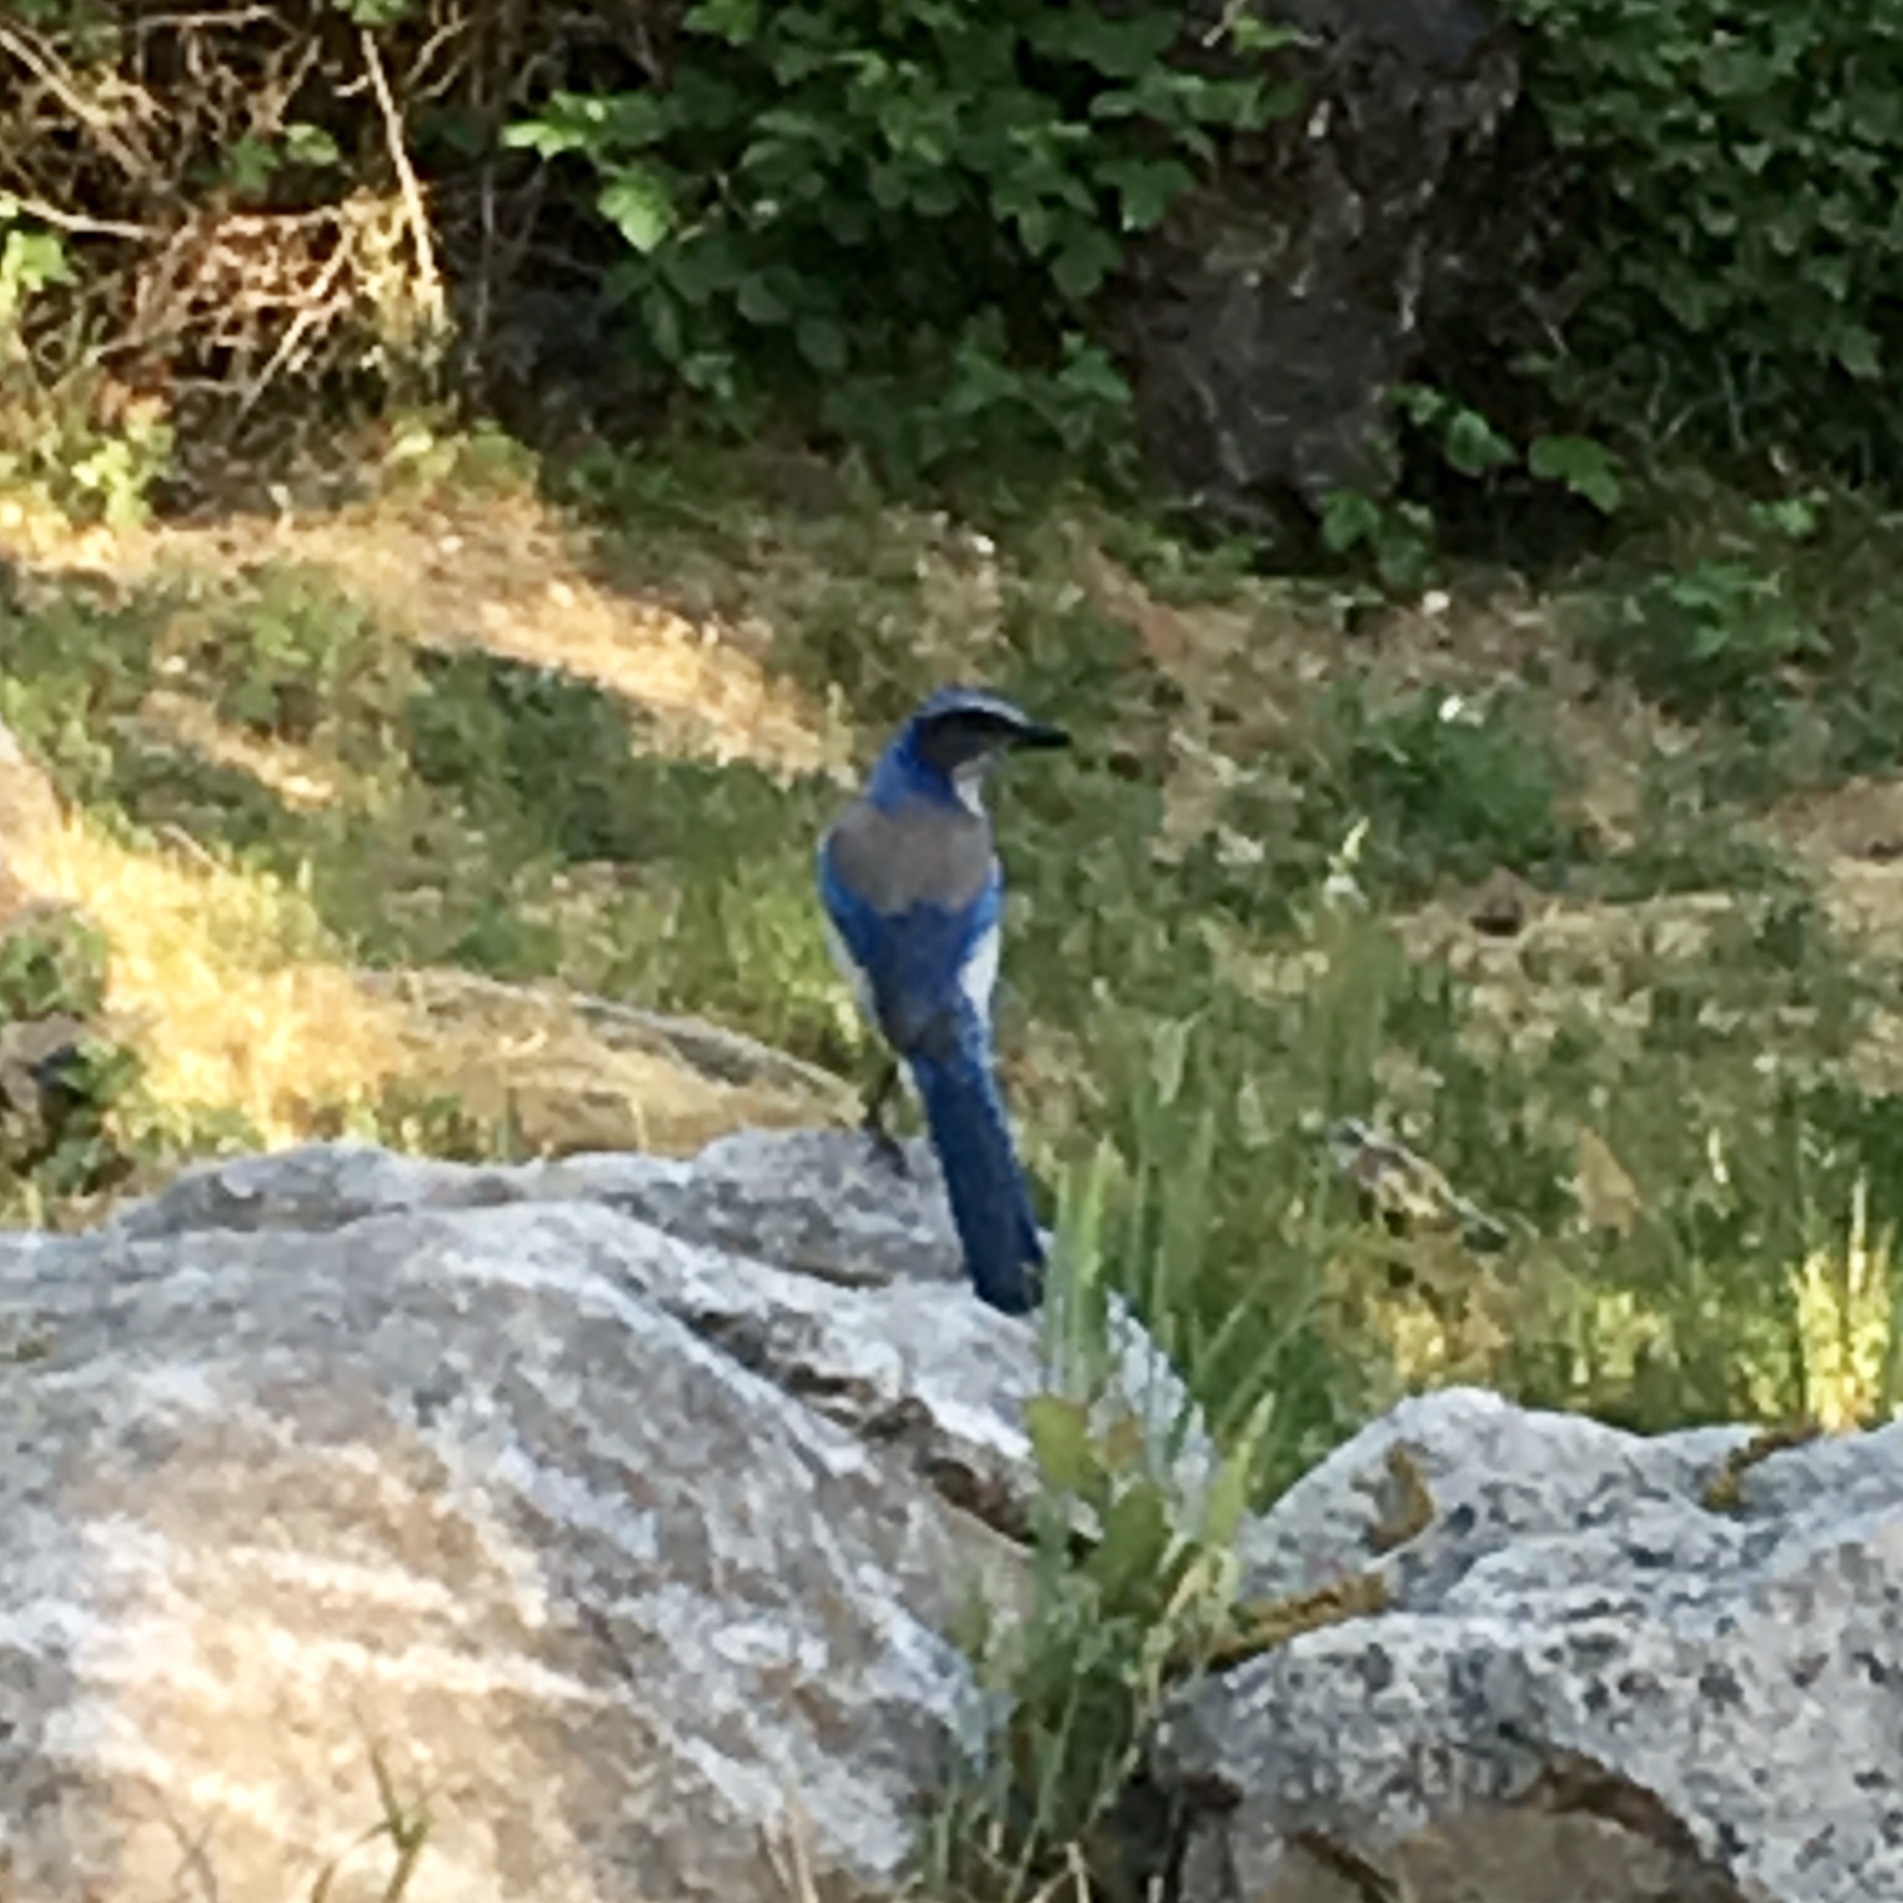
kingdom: Animalia
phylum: Chordata
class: Aves
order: Passeriformes
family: Corvidae
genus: Aphelocoma
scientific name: Aphelocoma californica
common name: California scrub-jay
